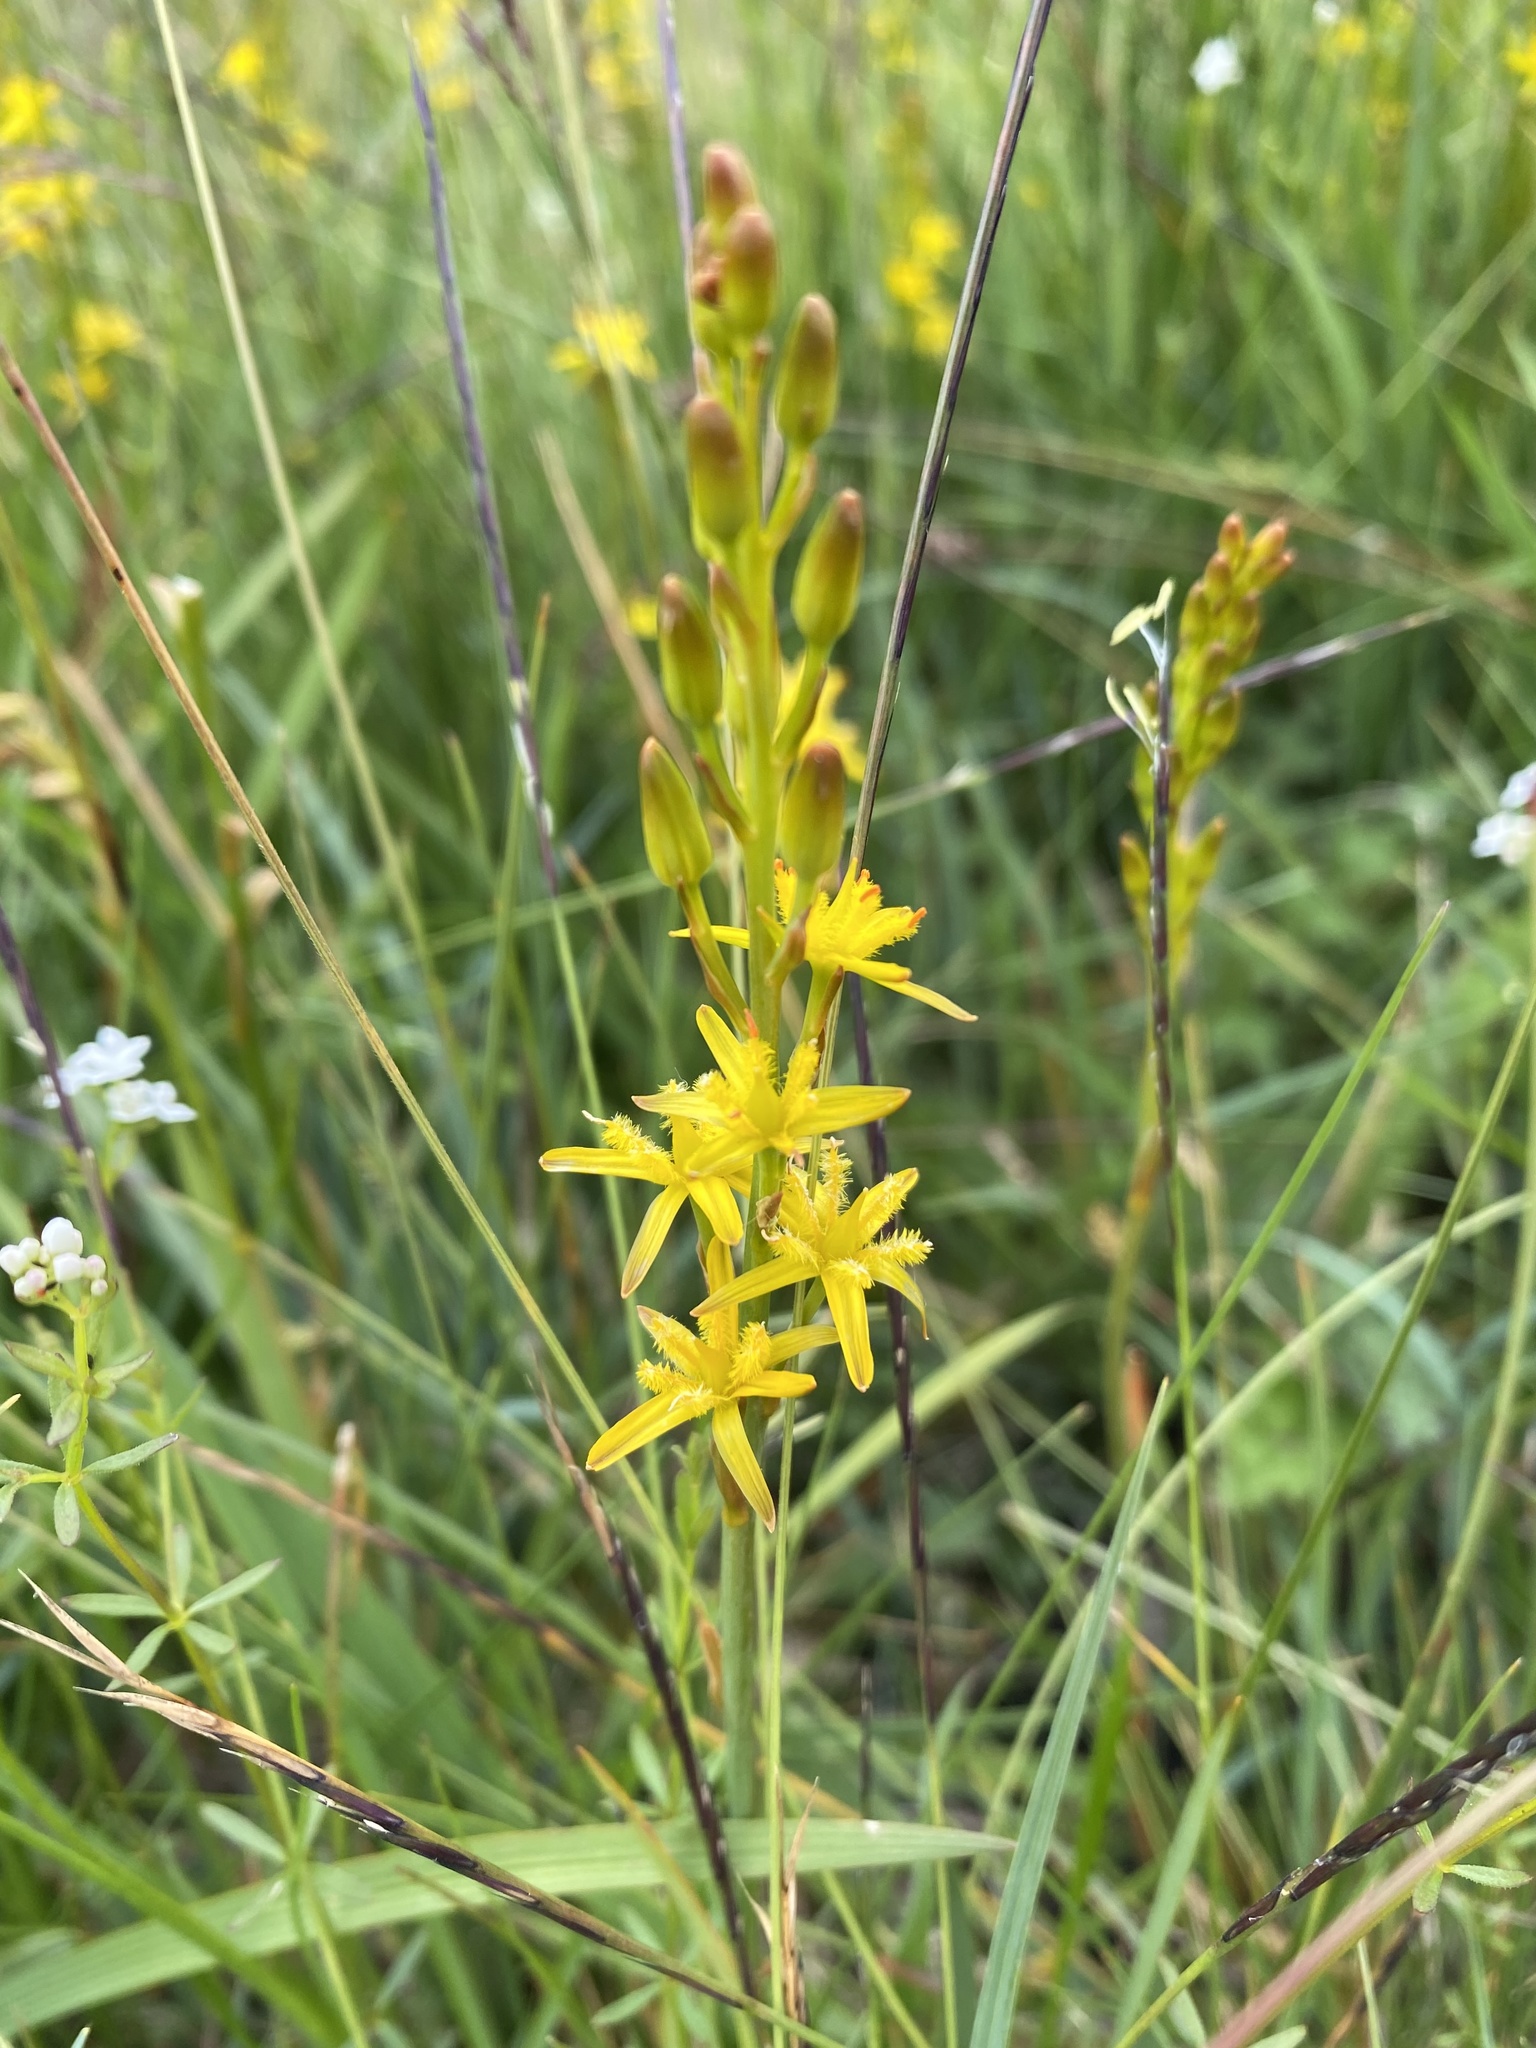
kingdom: Plantae
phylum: Tracheophyta
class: Liliopsida
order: Dioscoreales
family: Nartheciaceae
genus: Narthecium
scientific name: Narthecium ossifragum
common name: Bog asphodel
